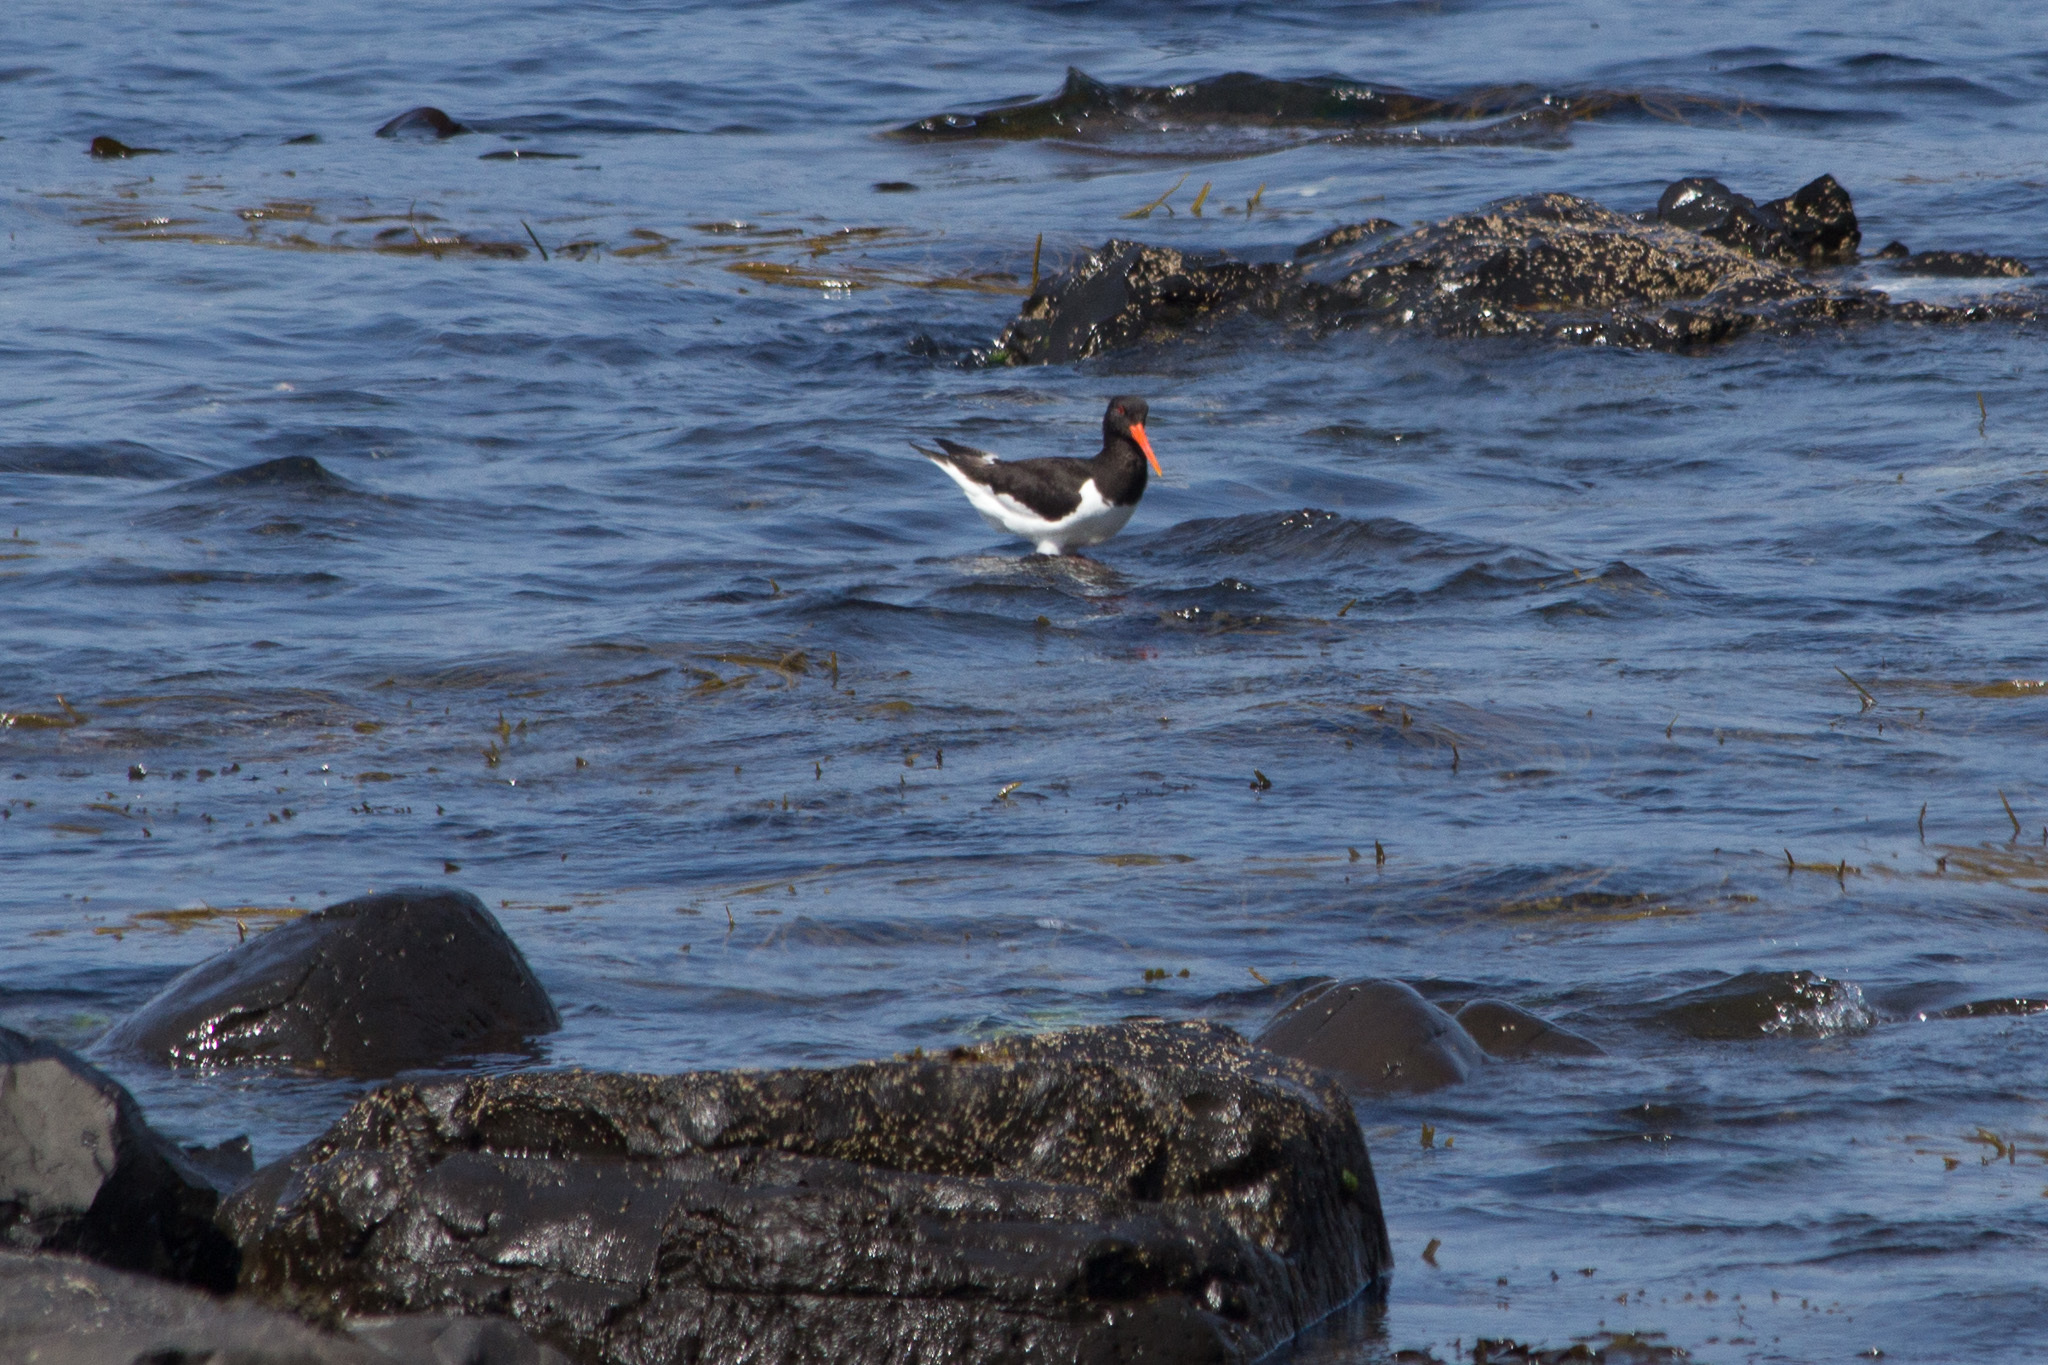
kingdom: Animalia
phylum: Chordata
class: Aves
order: Charadriiformes
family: Haematopodidae
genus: Haematopus
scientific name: Haematopus ostralegus
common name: Eurasian oystercatcher
